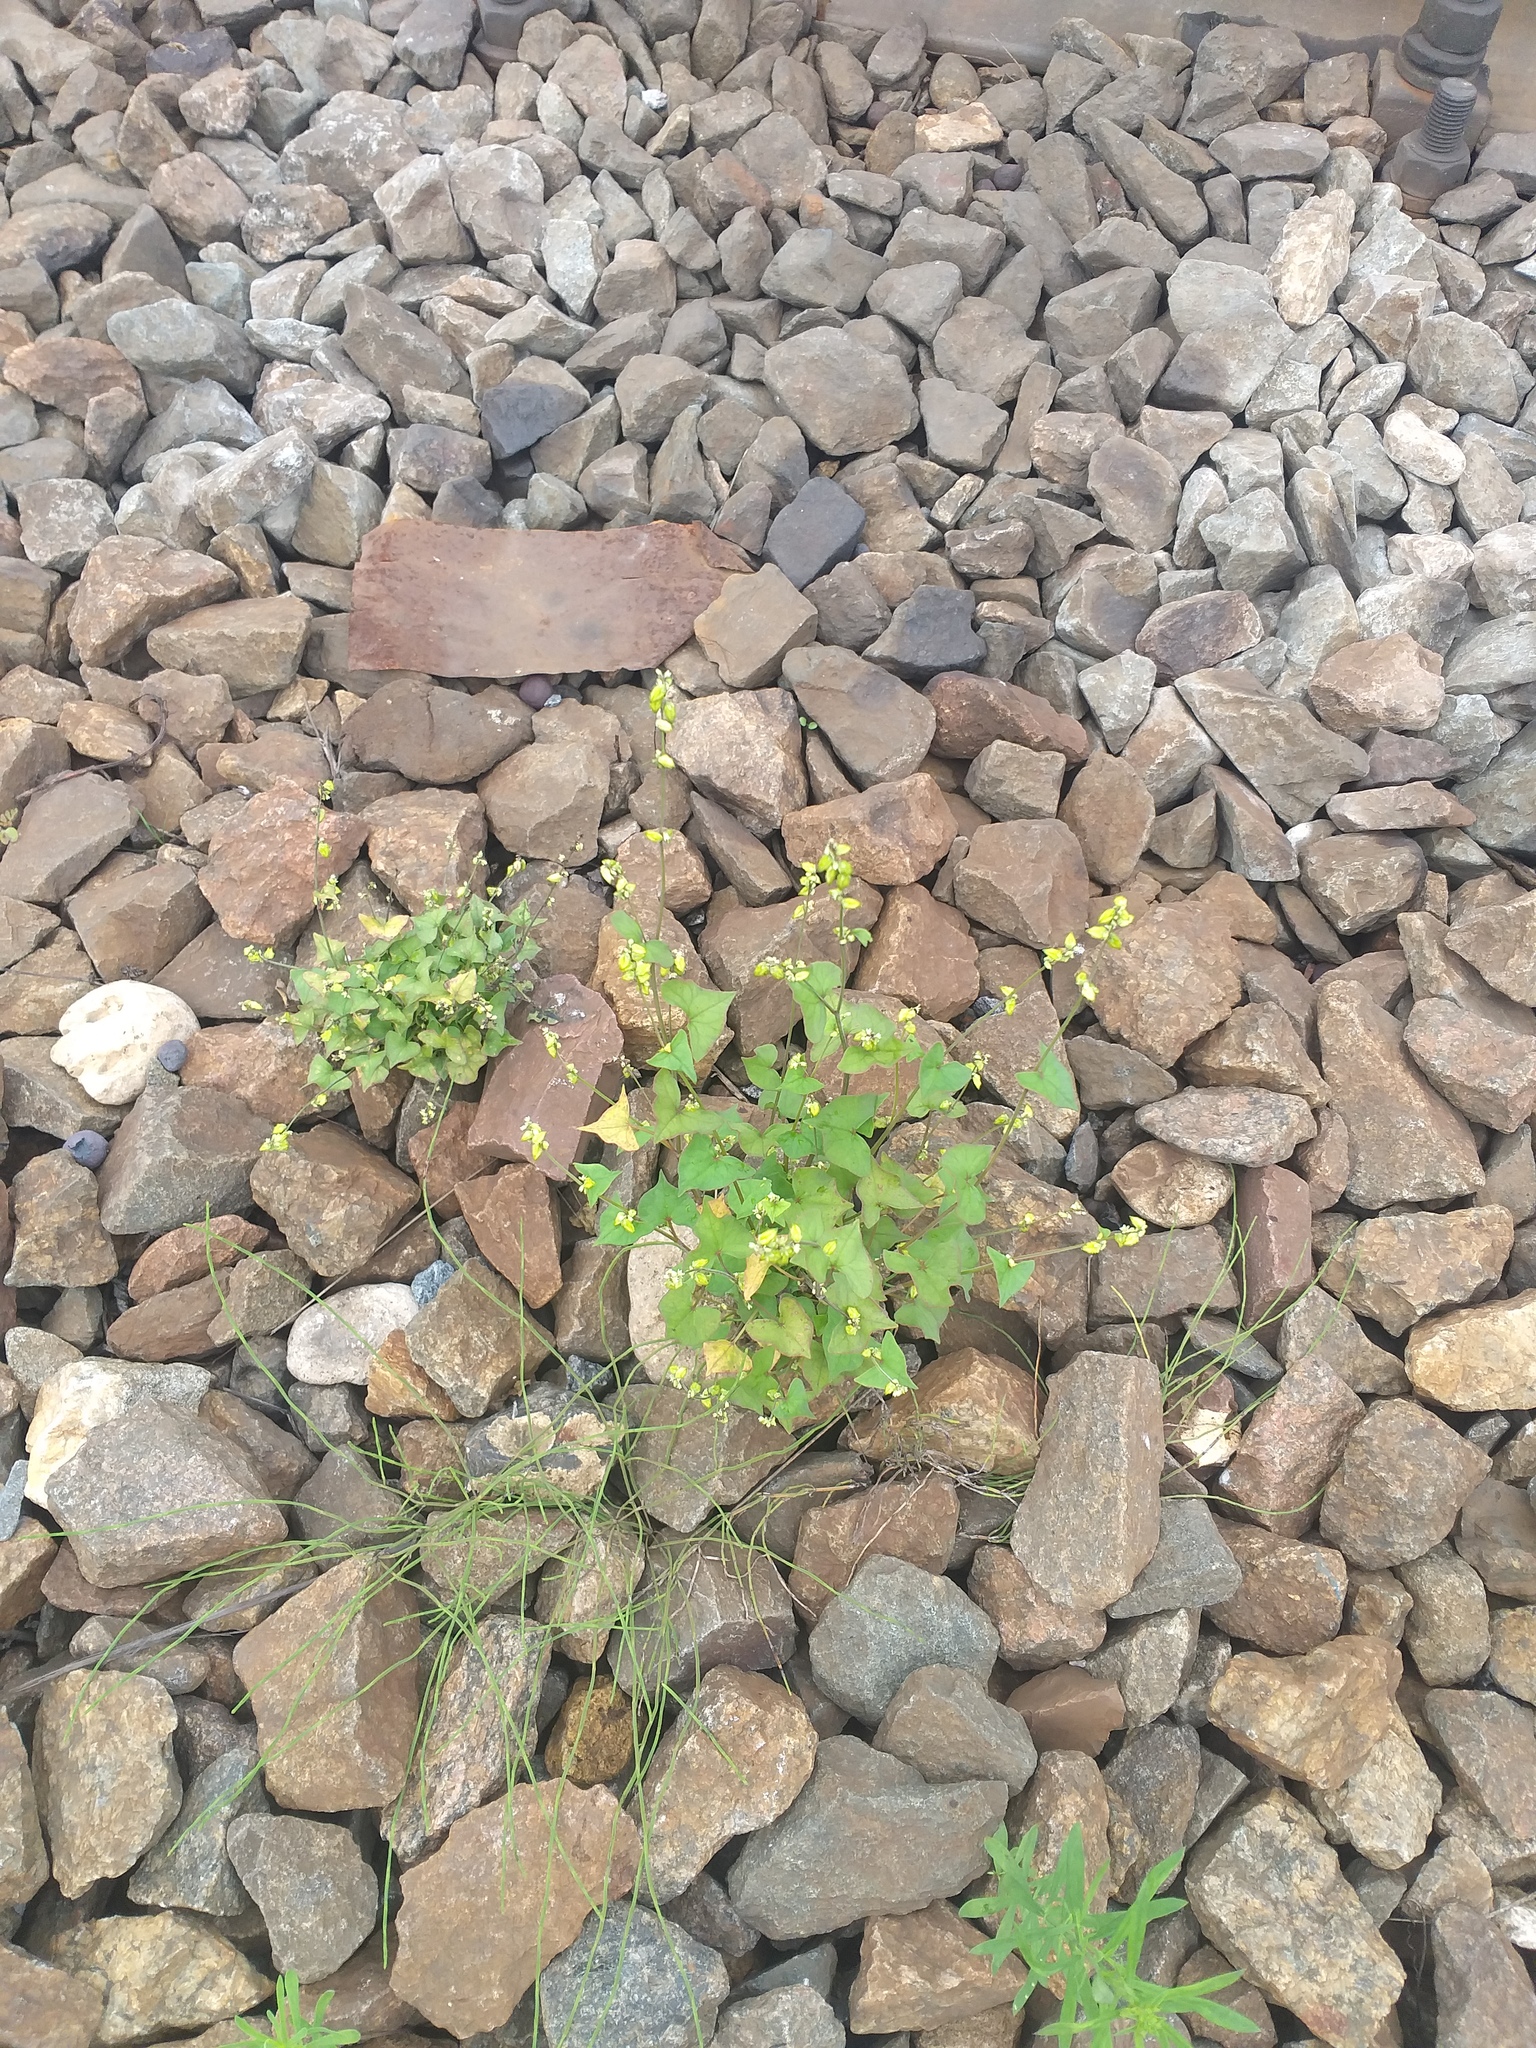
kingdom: Plantae
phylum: Tracheophyta
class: Magnoliopsida
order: Caryophyllales
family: Polygonaceae
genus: Fagopyrum
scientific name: Fagopyrum tataricum
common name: Green buckwheat
